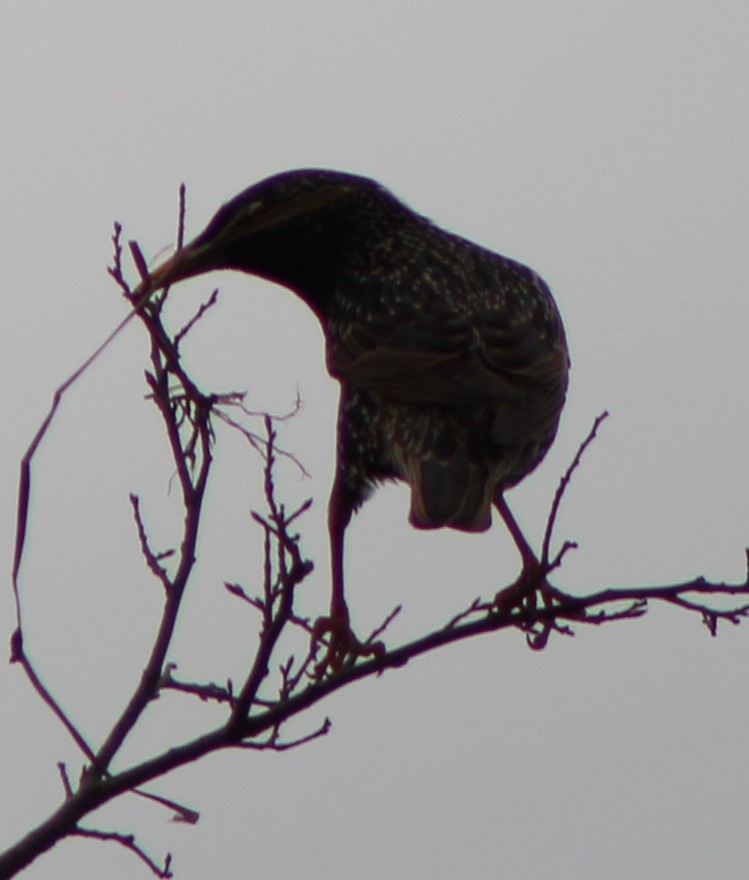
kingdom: Animalia
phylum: Chordata
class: Aves
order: Passeriformes
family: Sturnidae
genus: Sturnus
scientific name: Sturnus vulgaris
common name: Common starling
